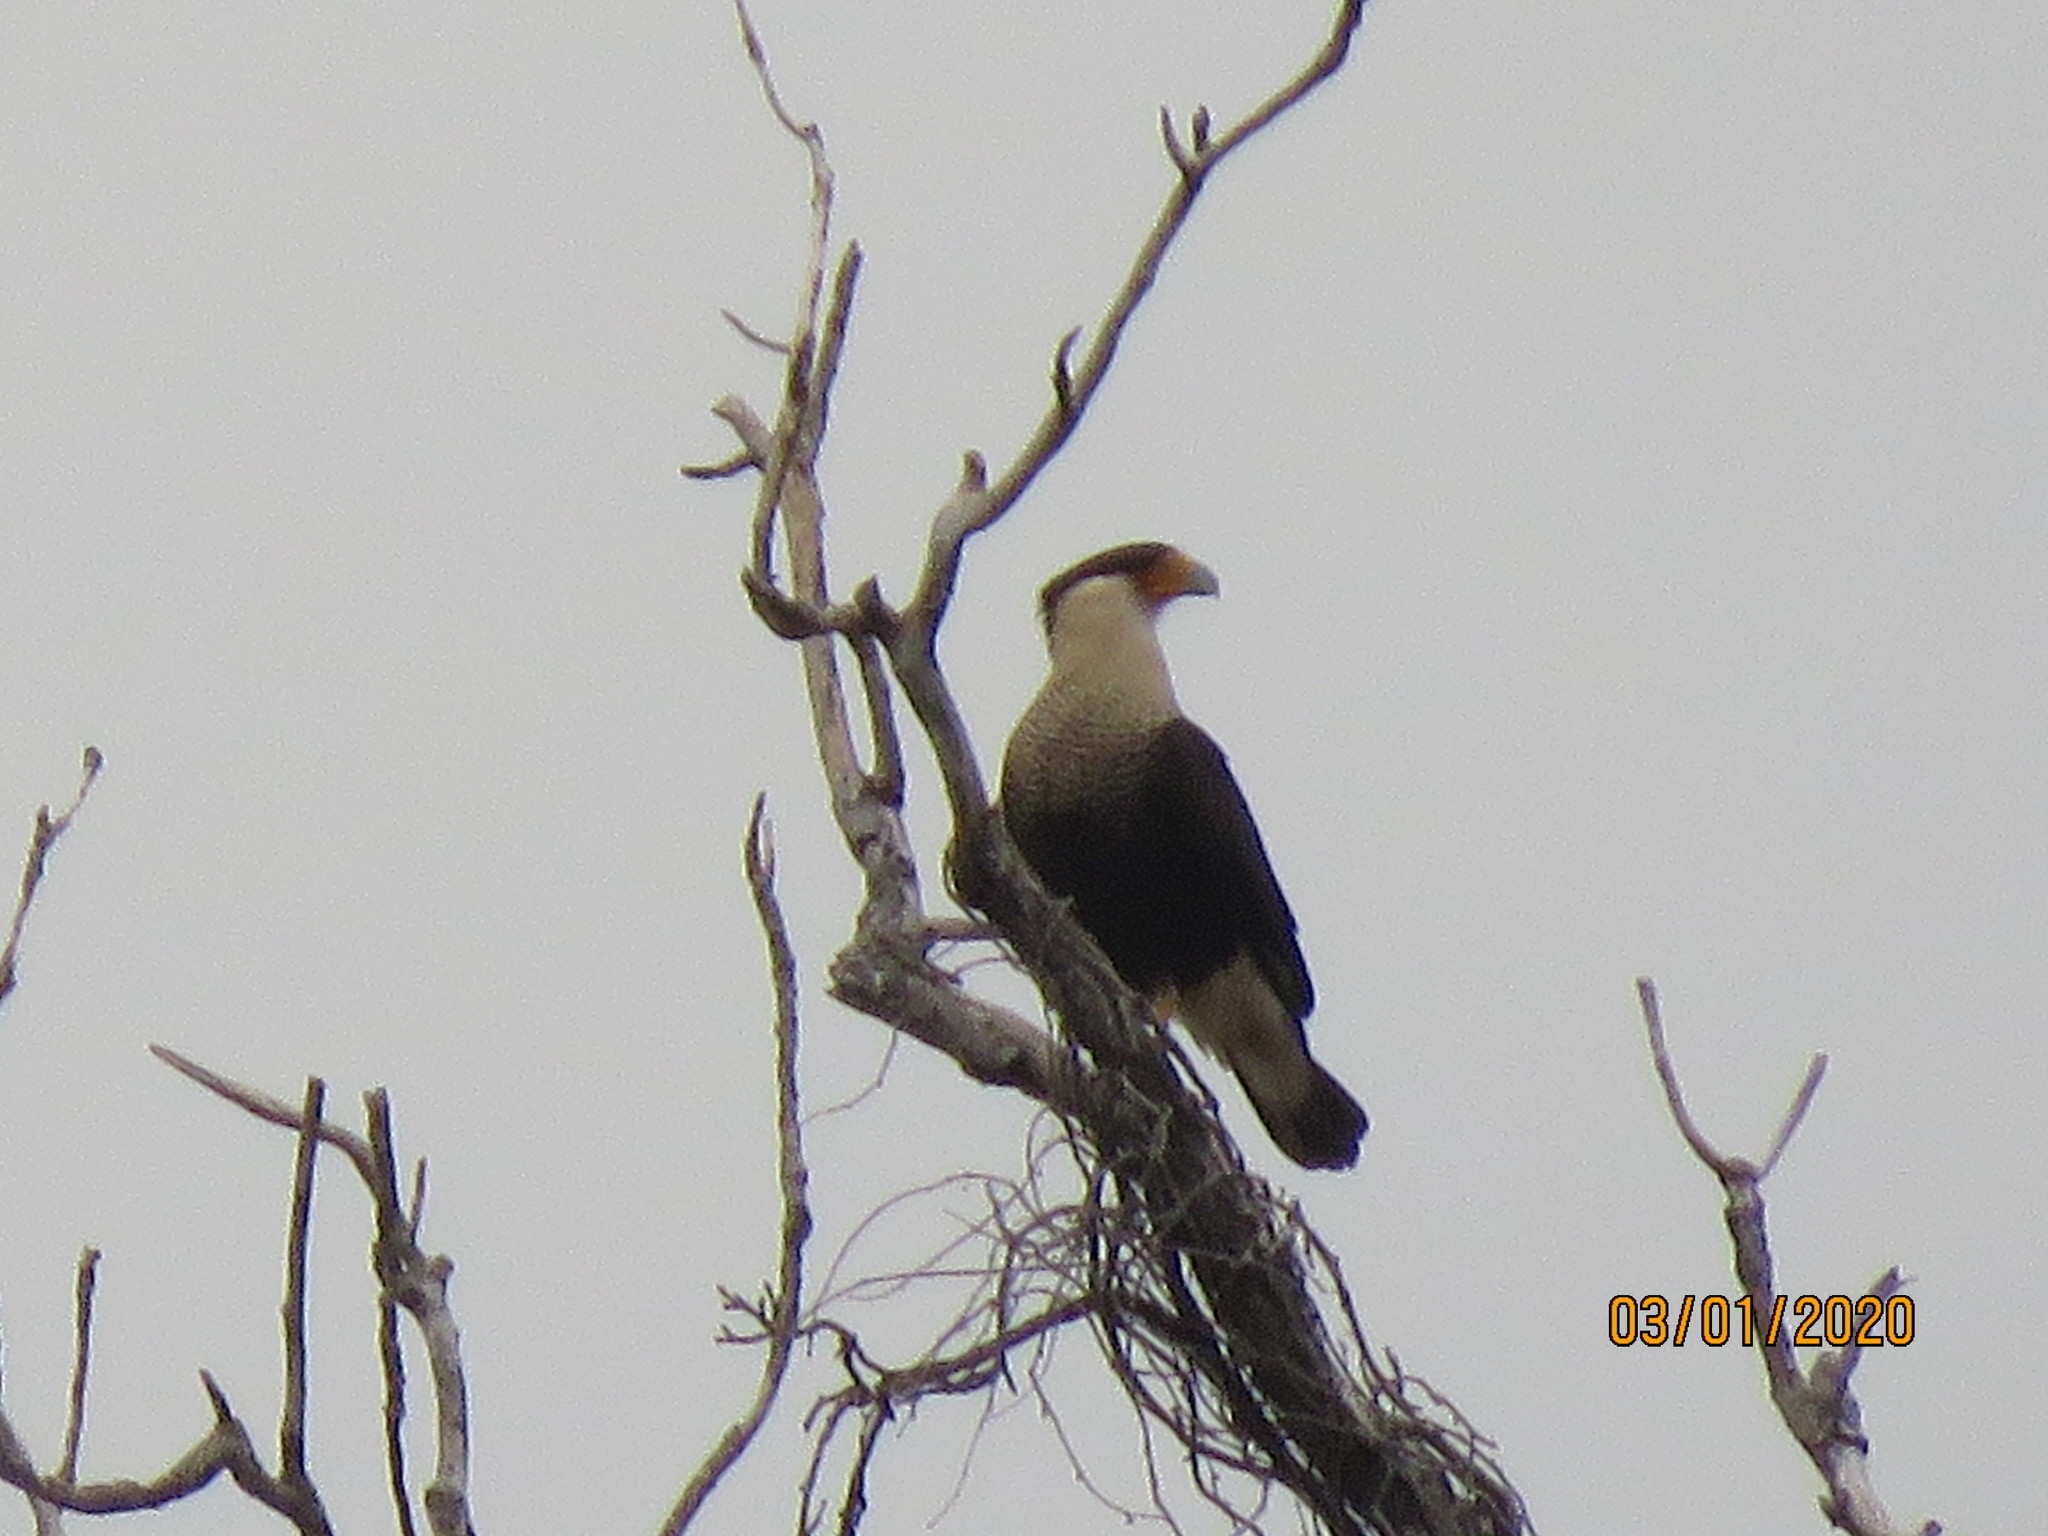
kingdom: Animalia
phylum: Chordata
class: Aves
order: Falconiformes
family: Falconidae
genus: Caracara
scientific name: Caracara plancus
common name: Southern caracara
